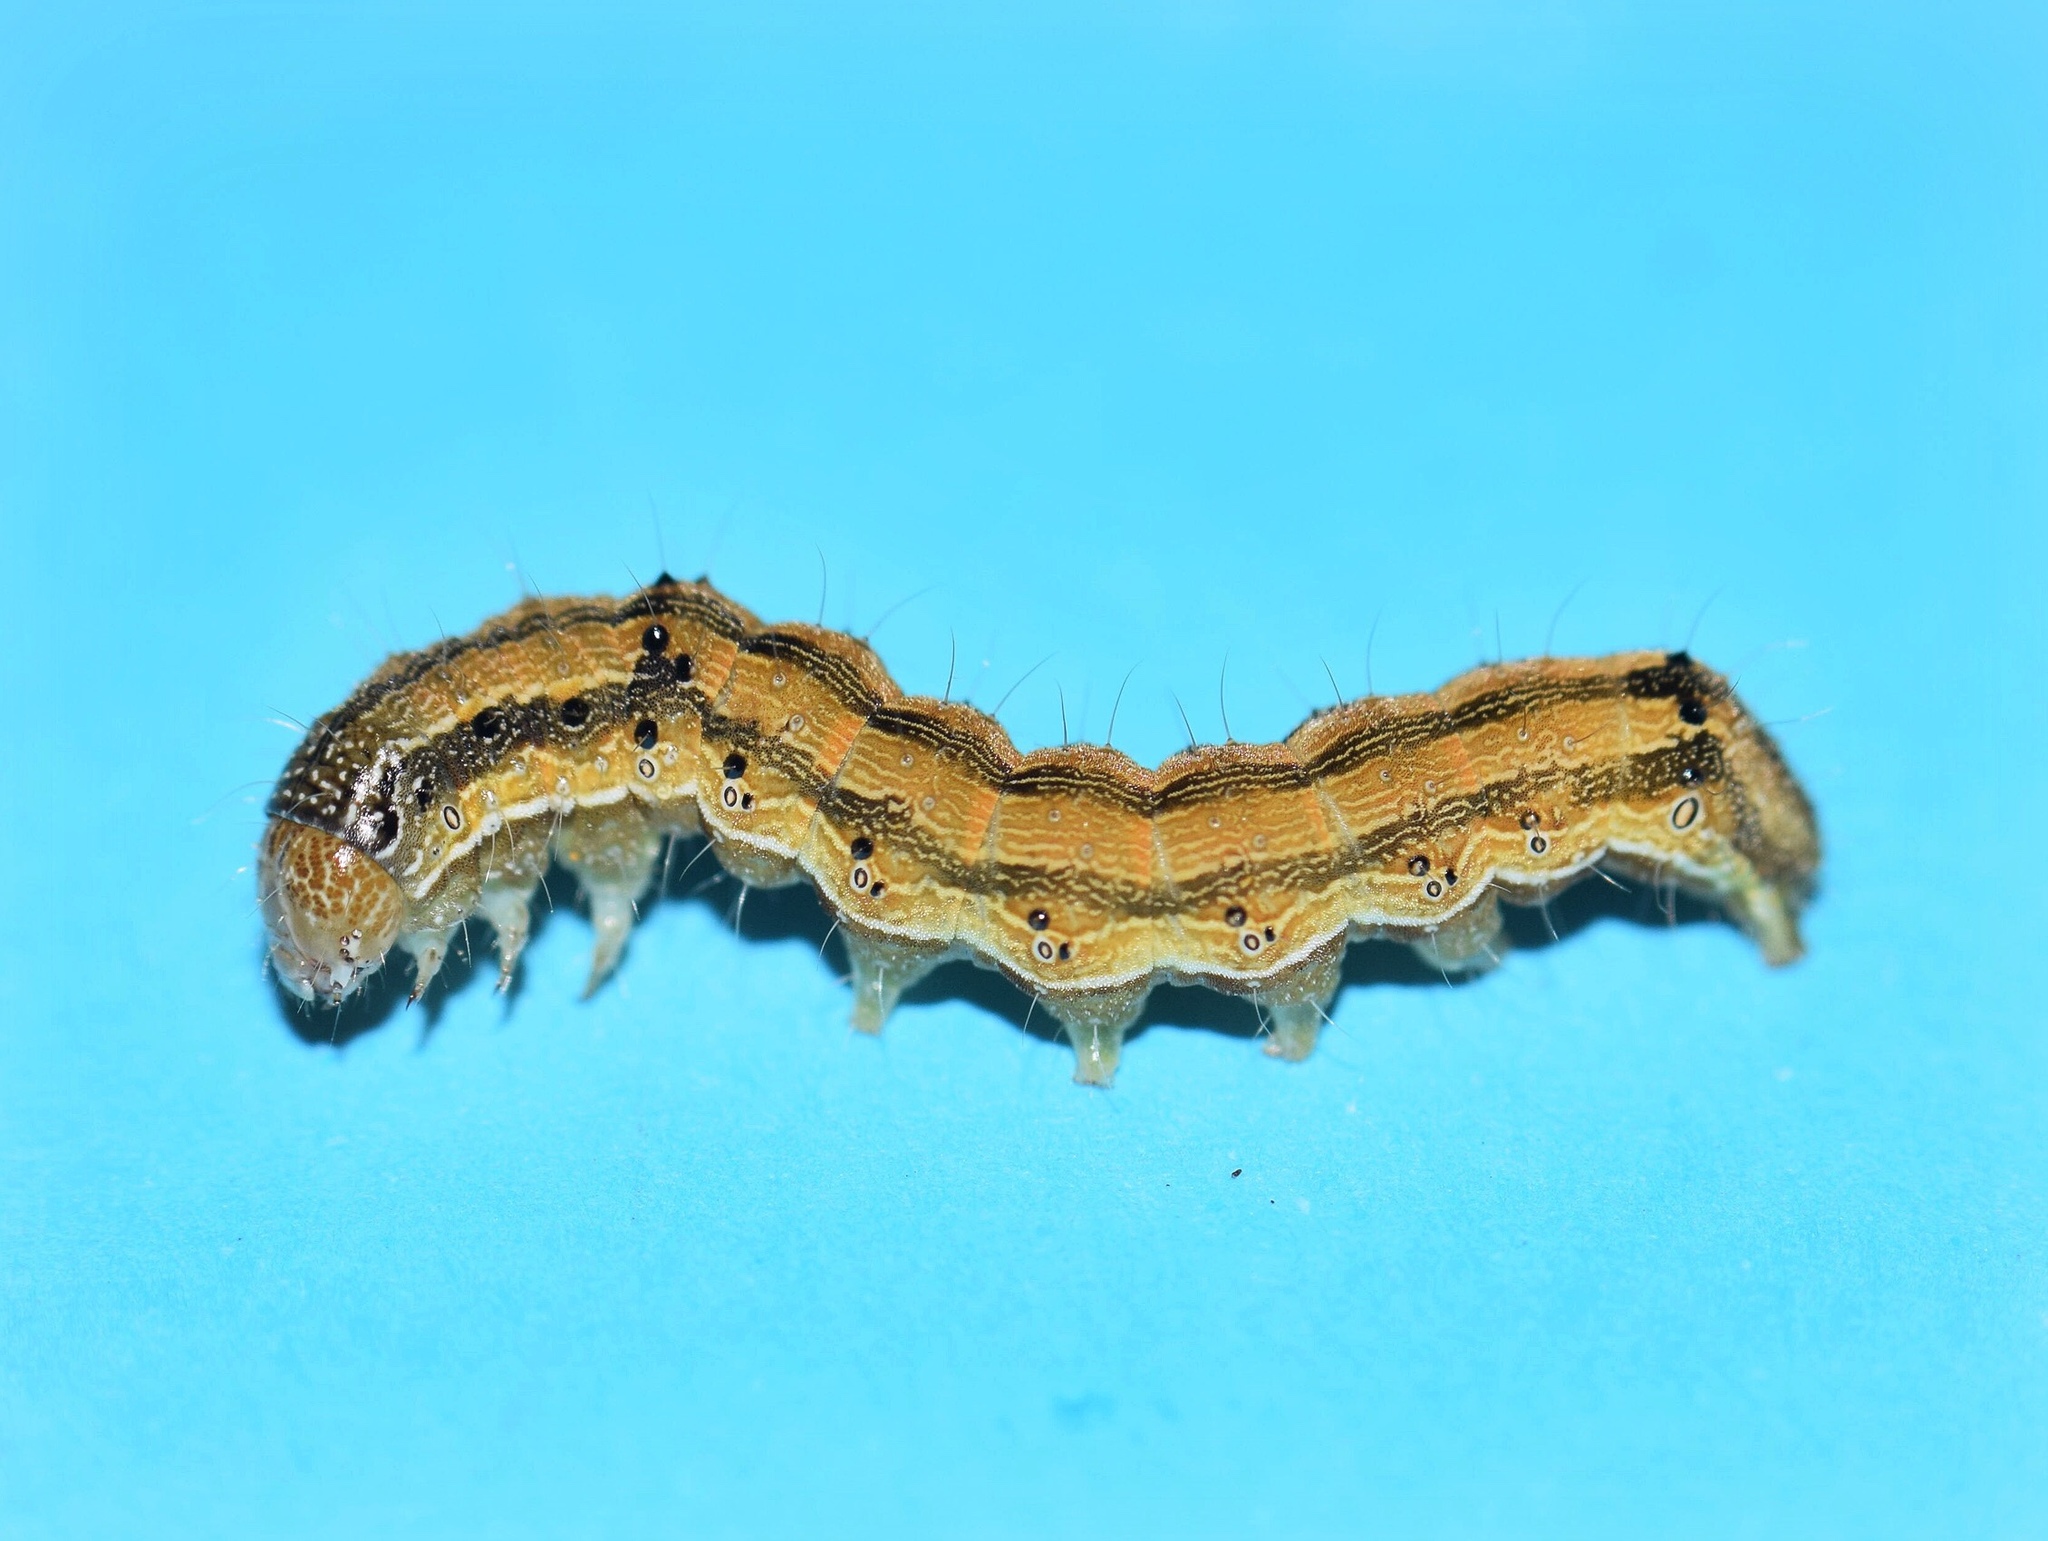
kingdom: Animalia
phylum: Arthropoda
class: Insecta
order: Lepidoptera
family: Noctuidae
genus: Helicoverpa
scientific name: Helicoverpa armigera
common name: Cotton bollworm
